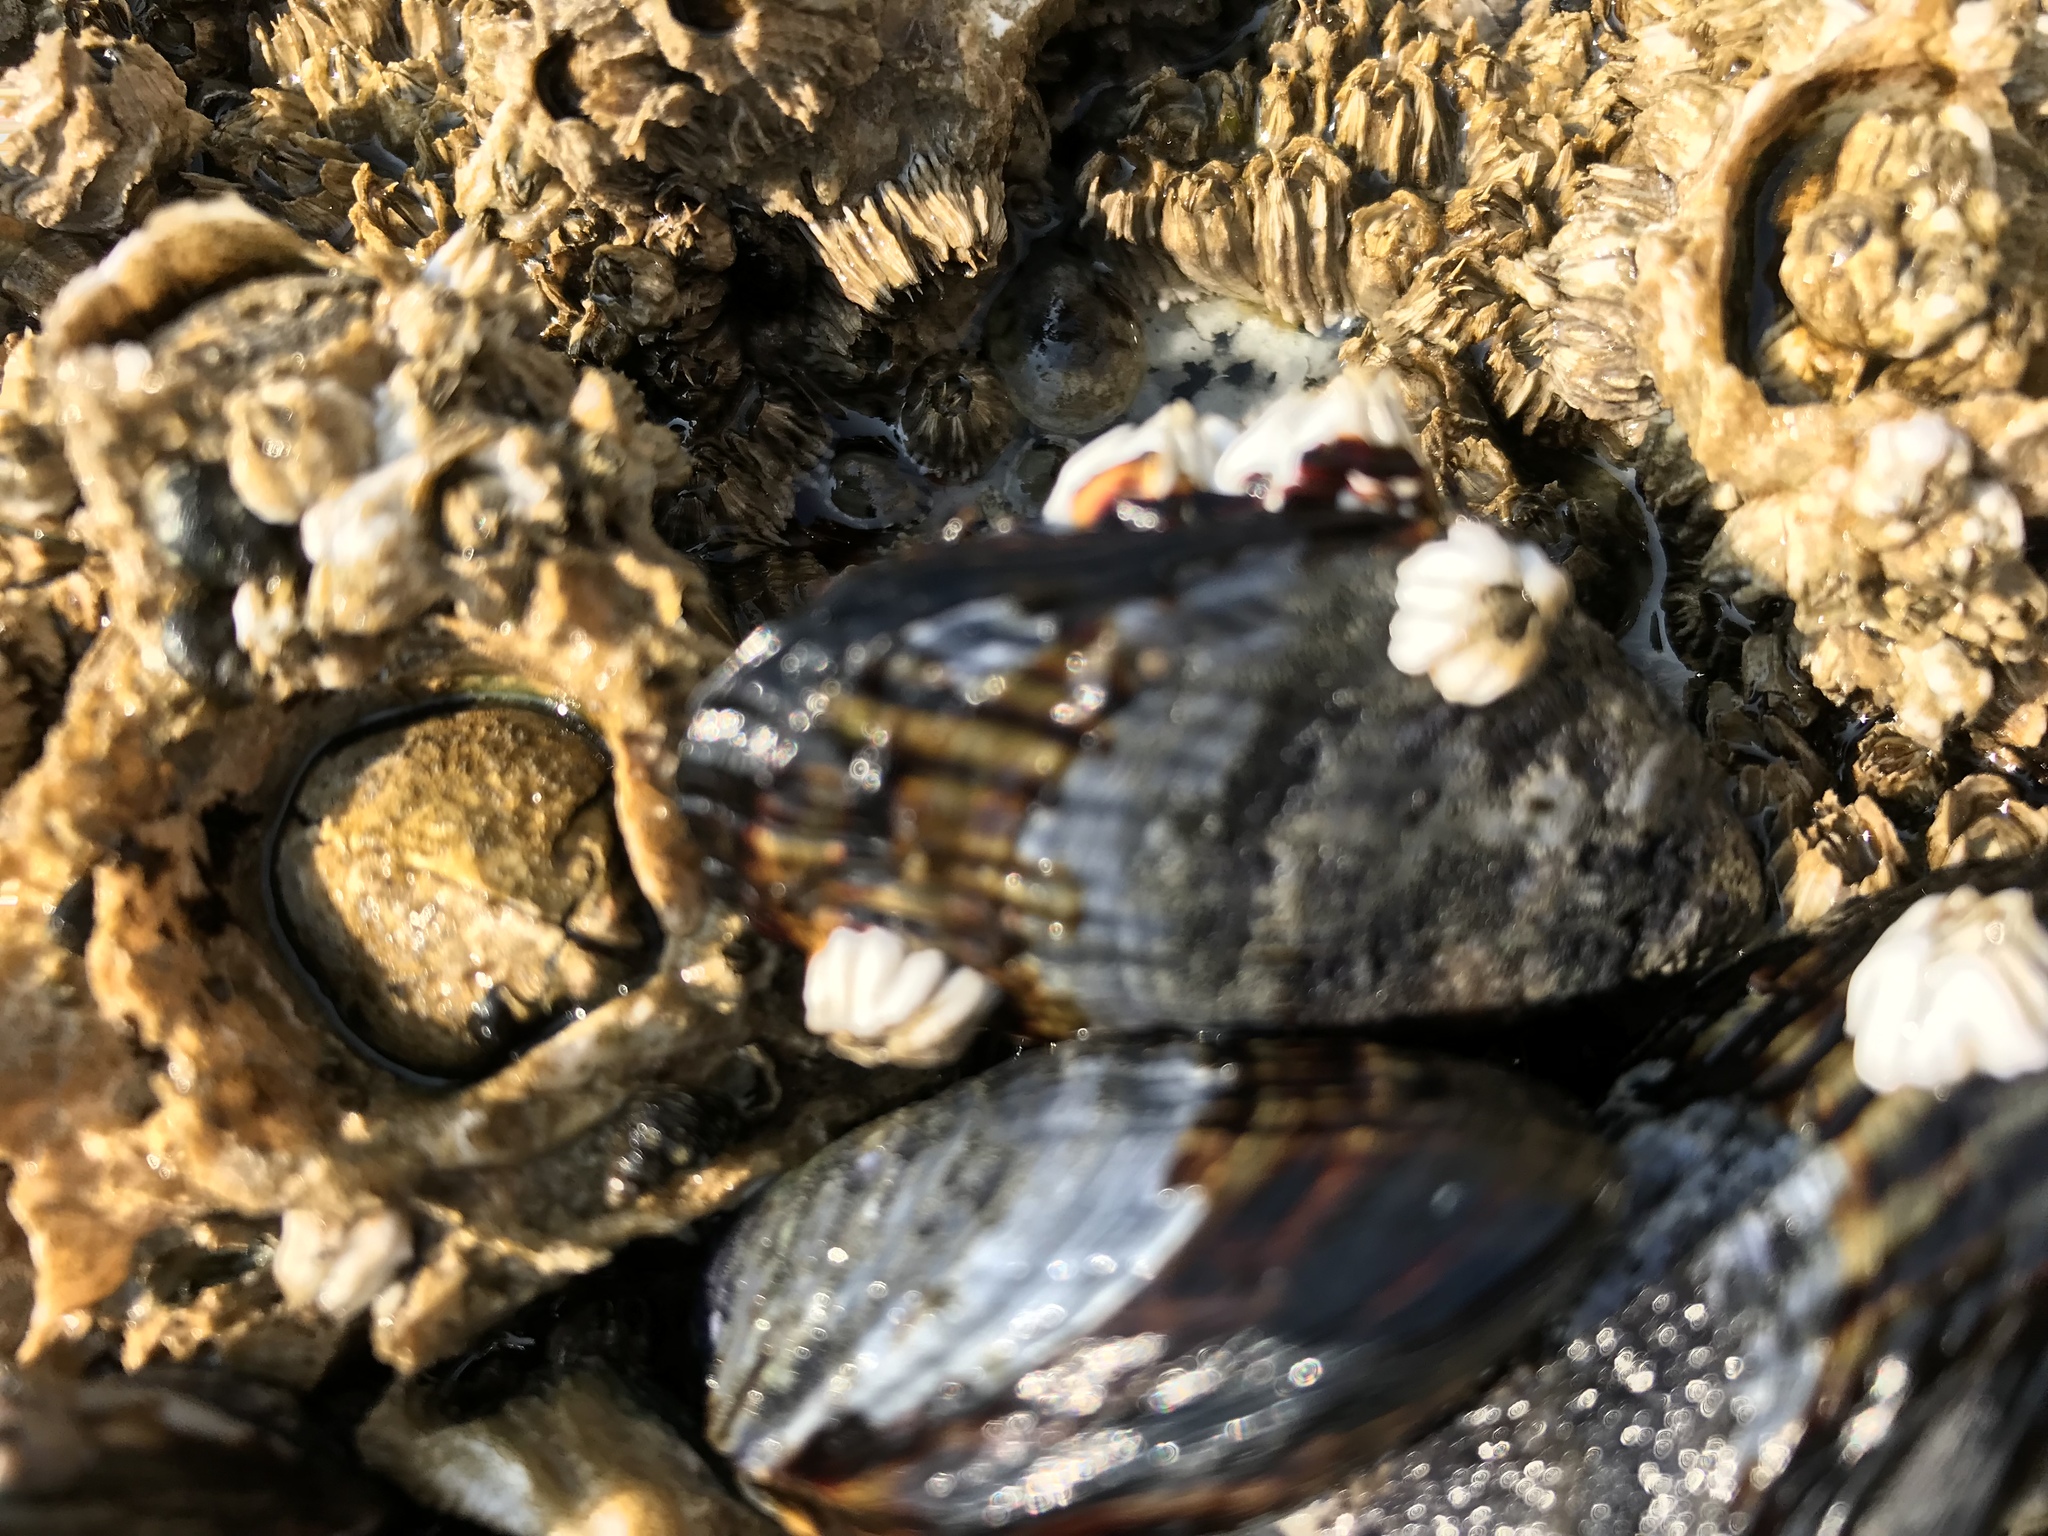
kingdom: Animalia
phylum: Mollusca
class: Bivalvia
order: Mytilida
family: Mytilidae
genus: Mytilus
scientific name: Mytilus californianus
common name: California mussel
